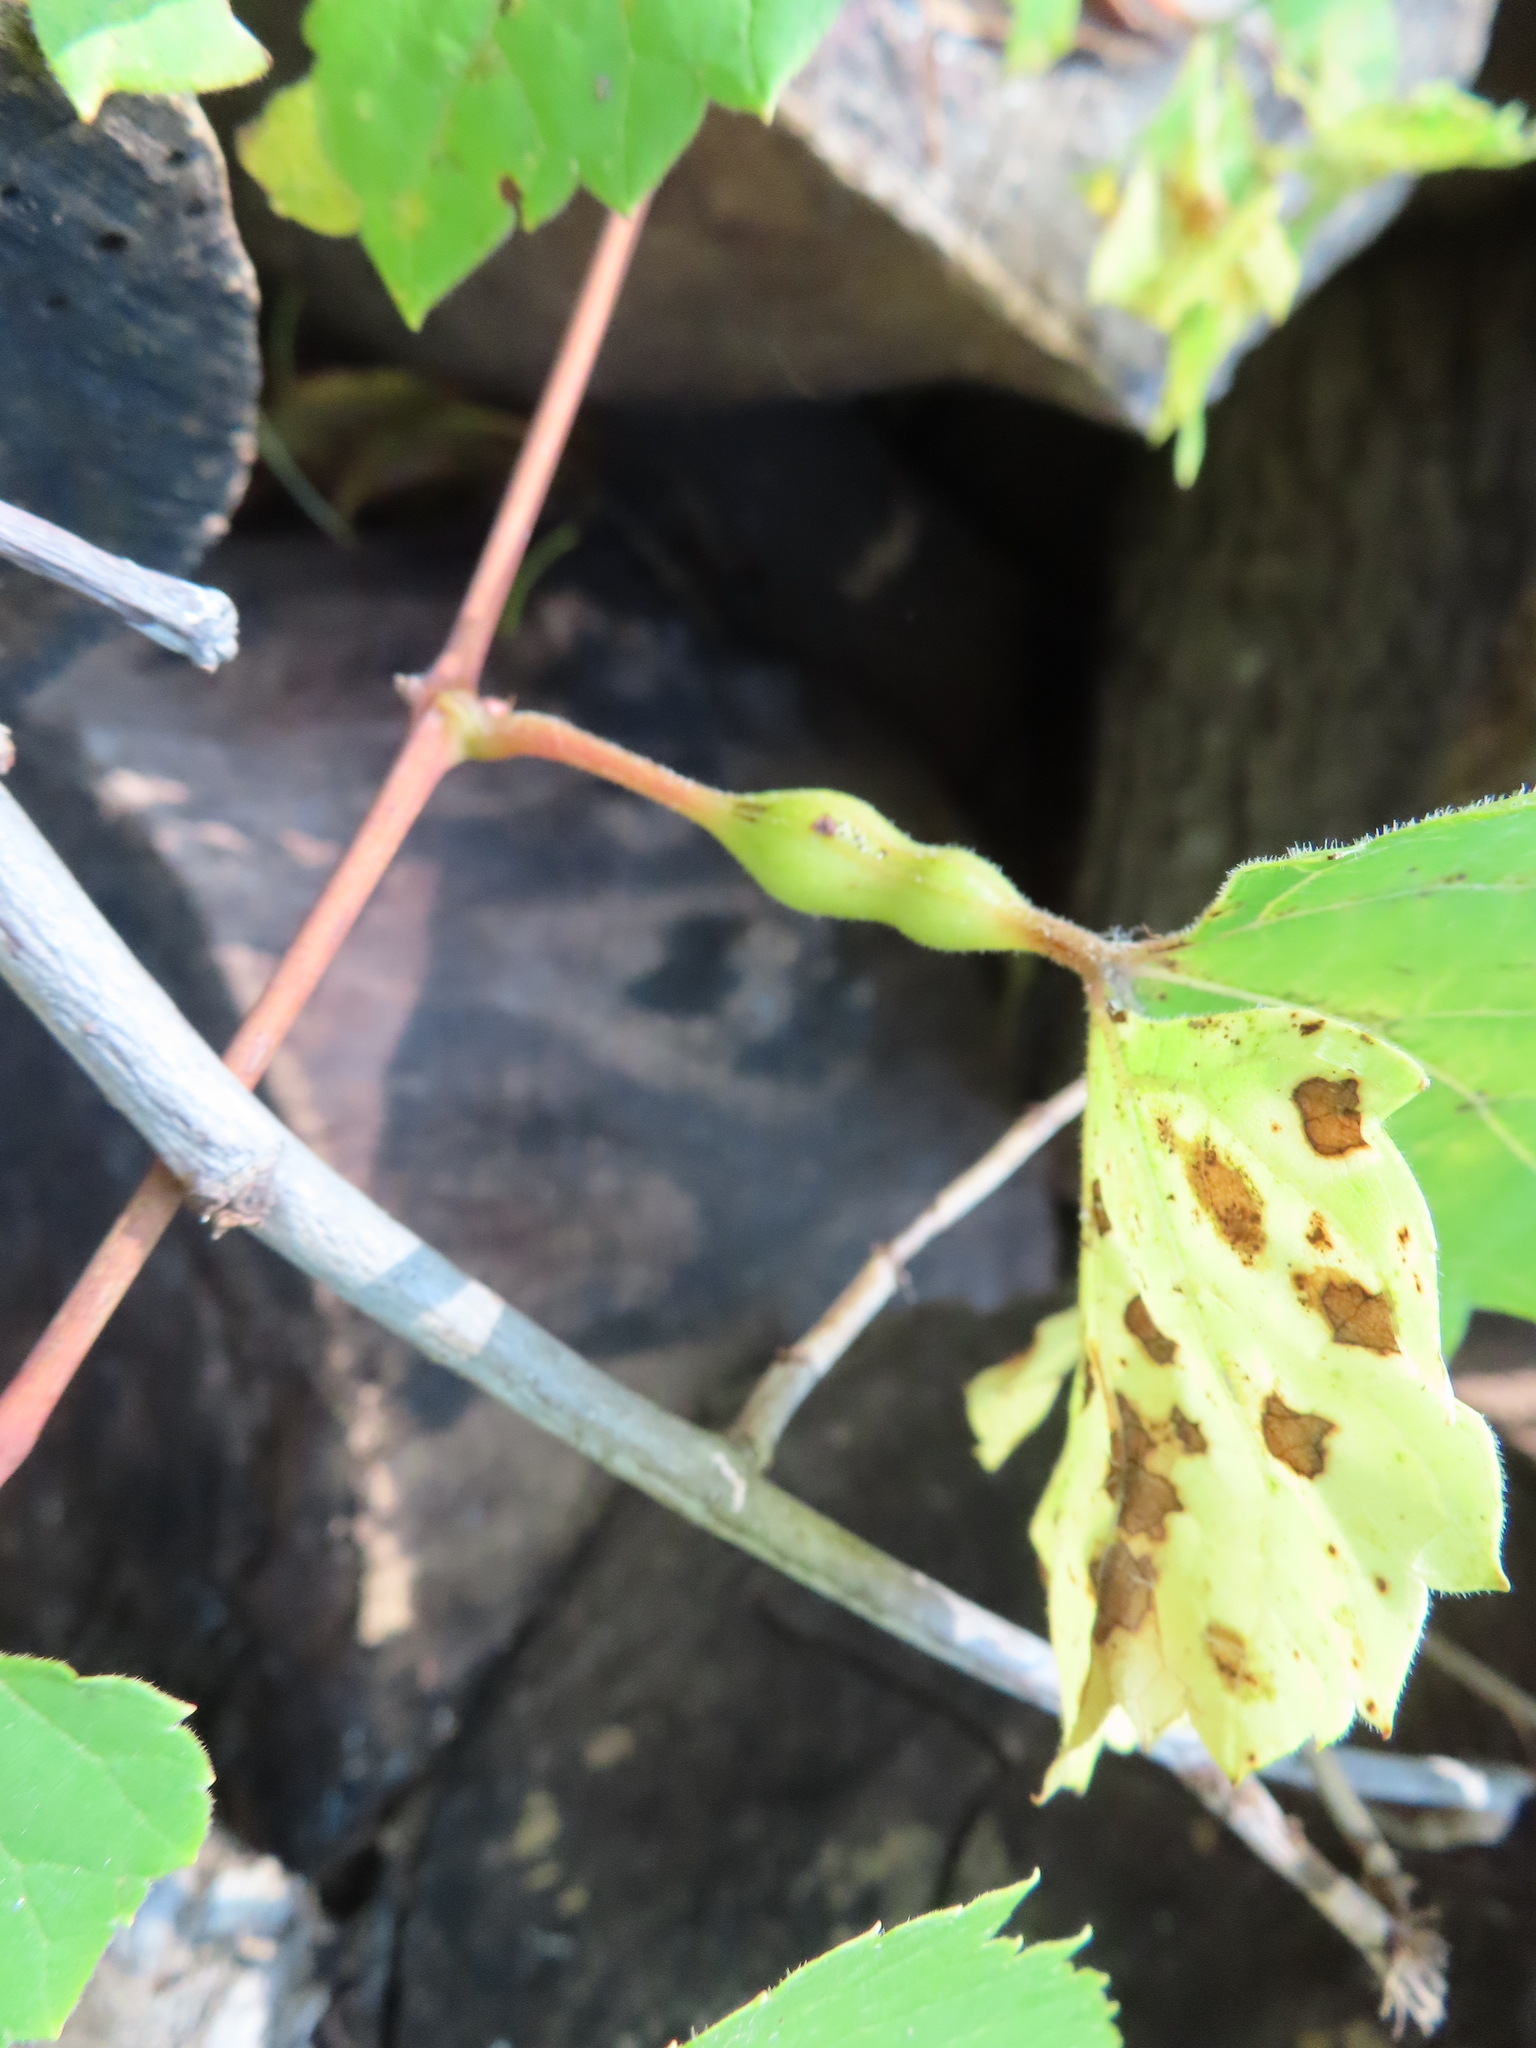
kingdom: Animalia
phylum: Arthropoda
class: Insecta
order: Diptera
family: Cecidomyiidae
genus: Neolasioptera
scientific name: Neolasioptera vitinea
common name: Grape leaf petiole gall
